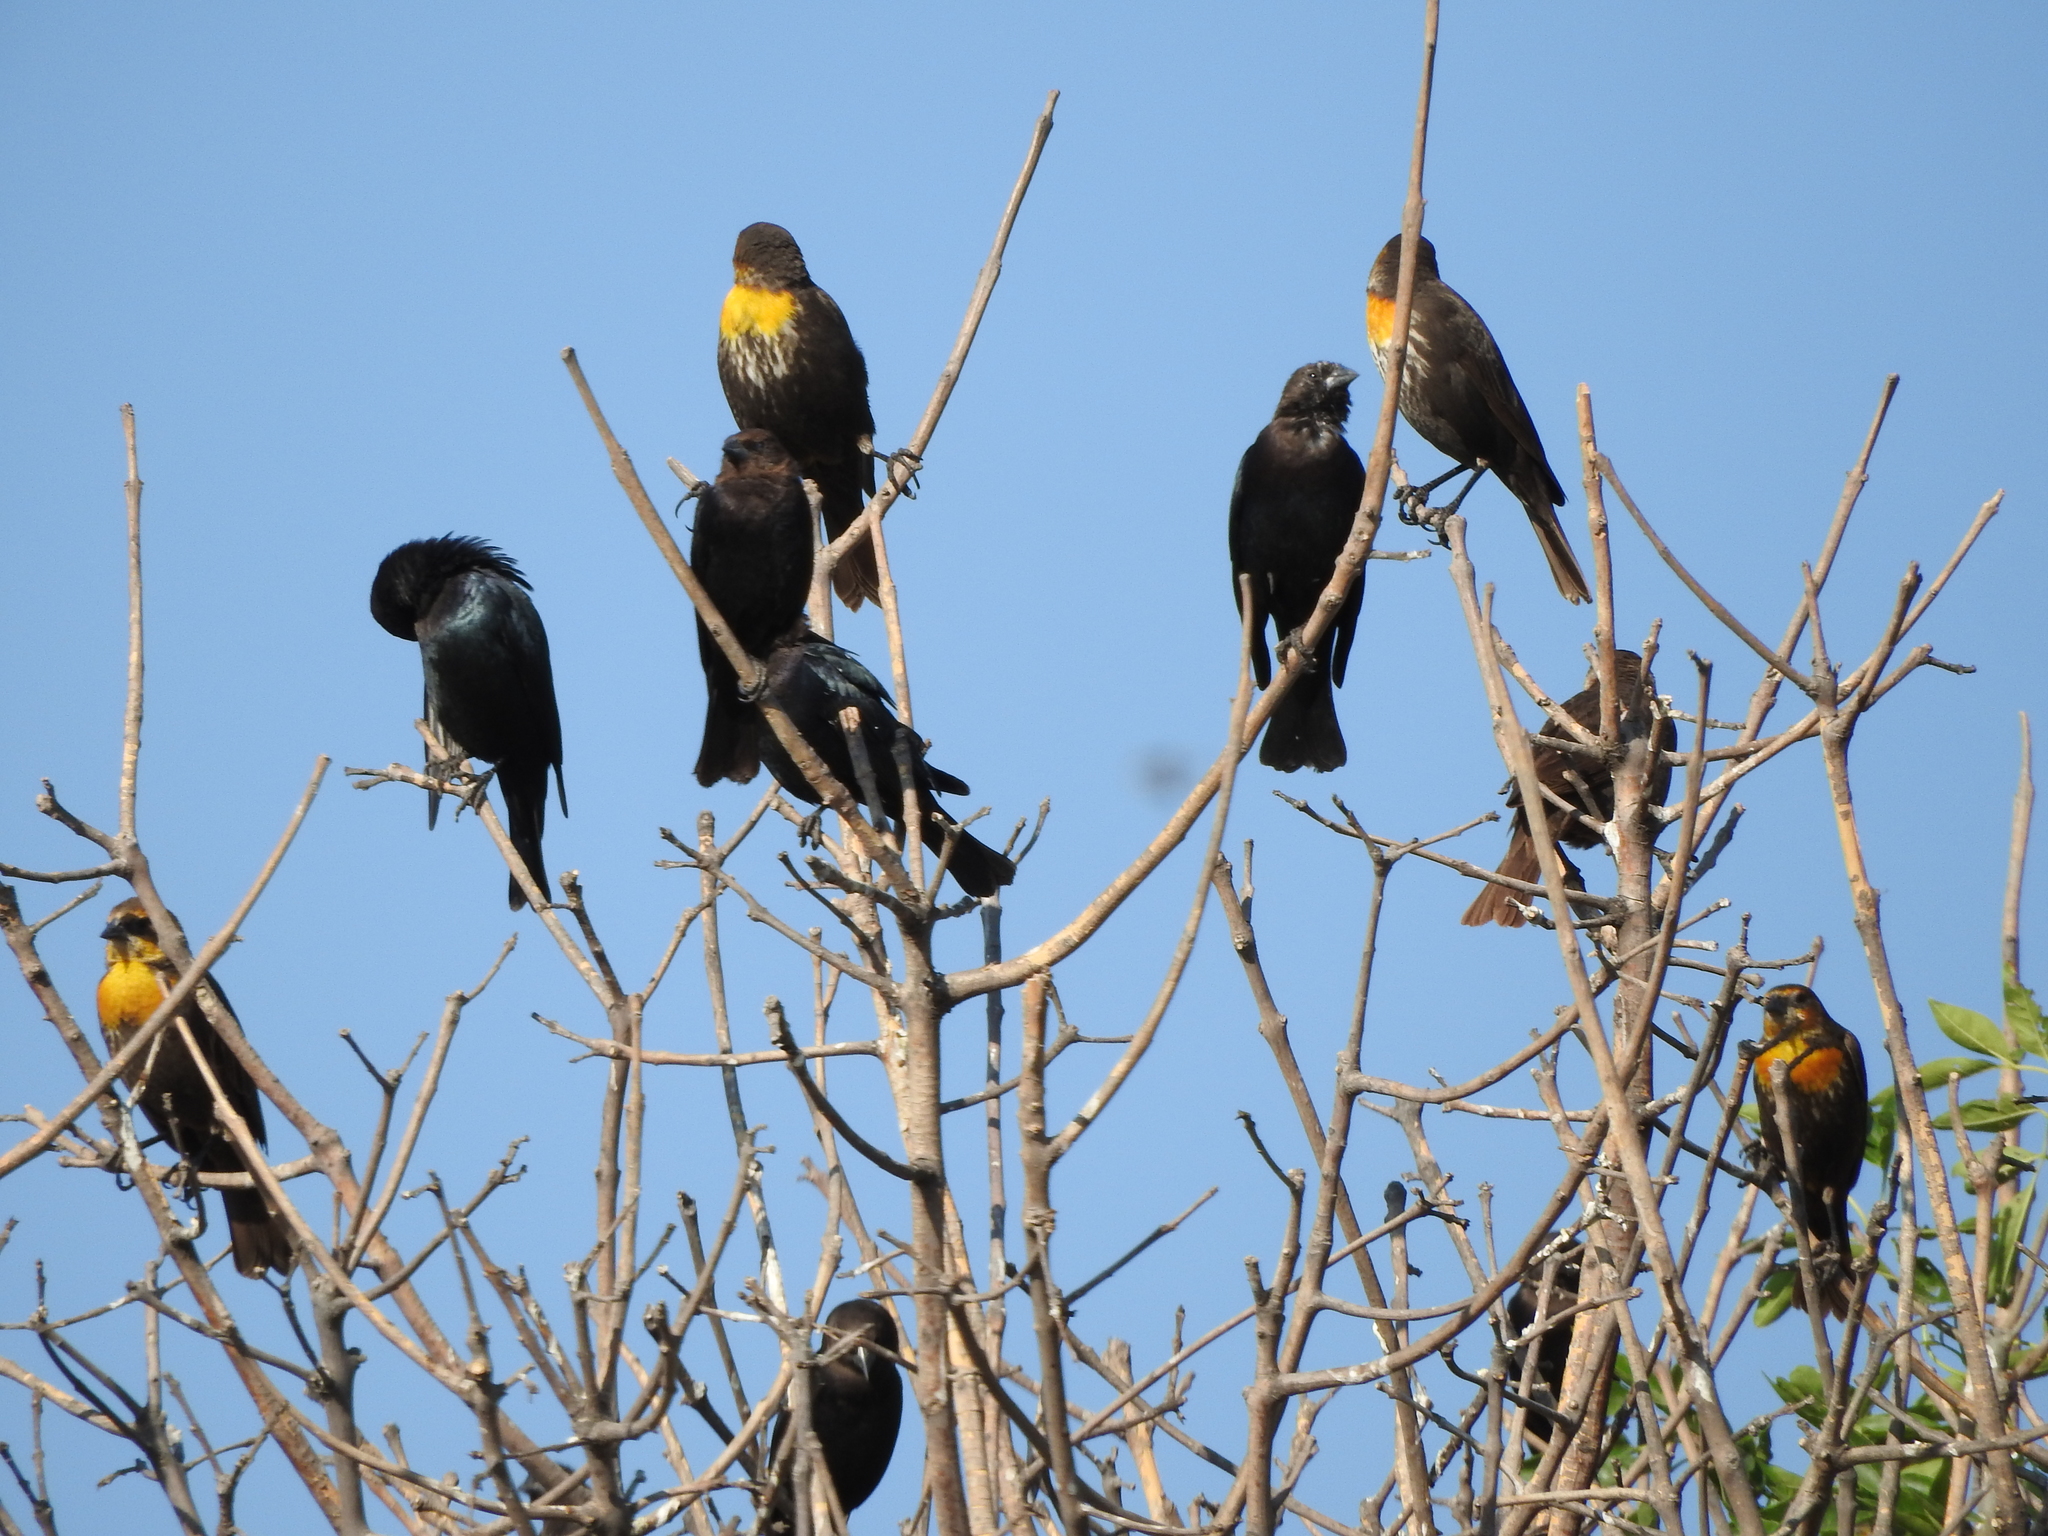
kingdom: Animalia
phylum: Chordata
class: Aves
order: Passeriformes
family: Icteridae
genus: Xanthocephalus
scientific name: Xanthocephalus xanthocephalus
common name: Yellow-headed blackbird
